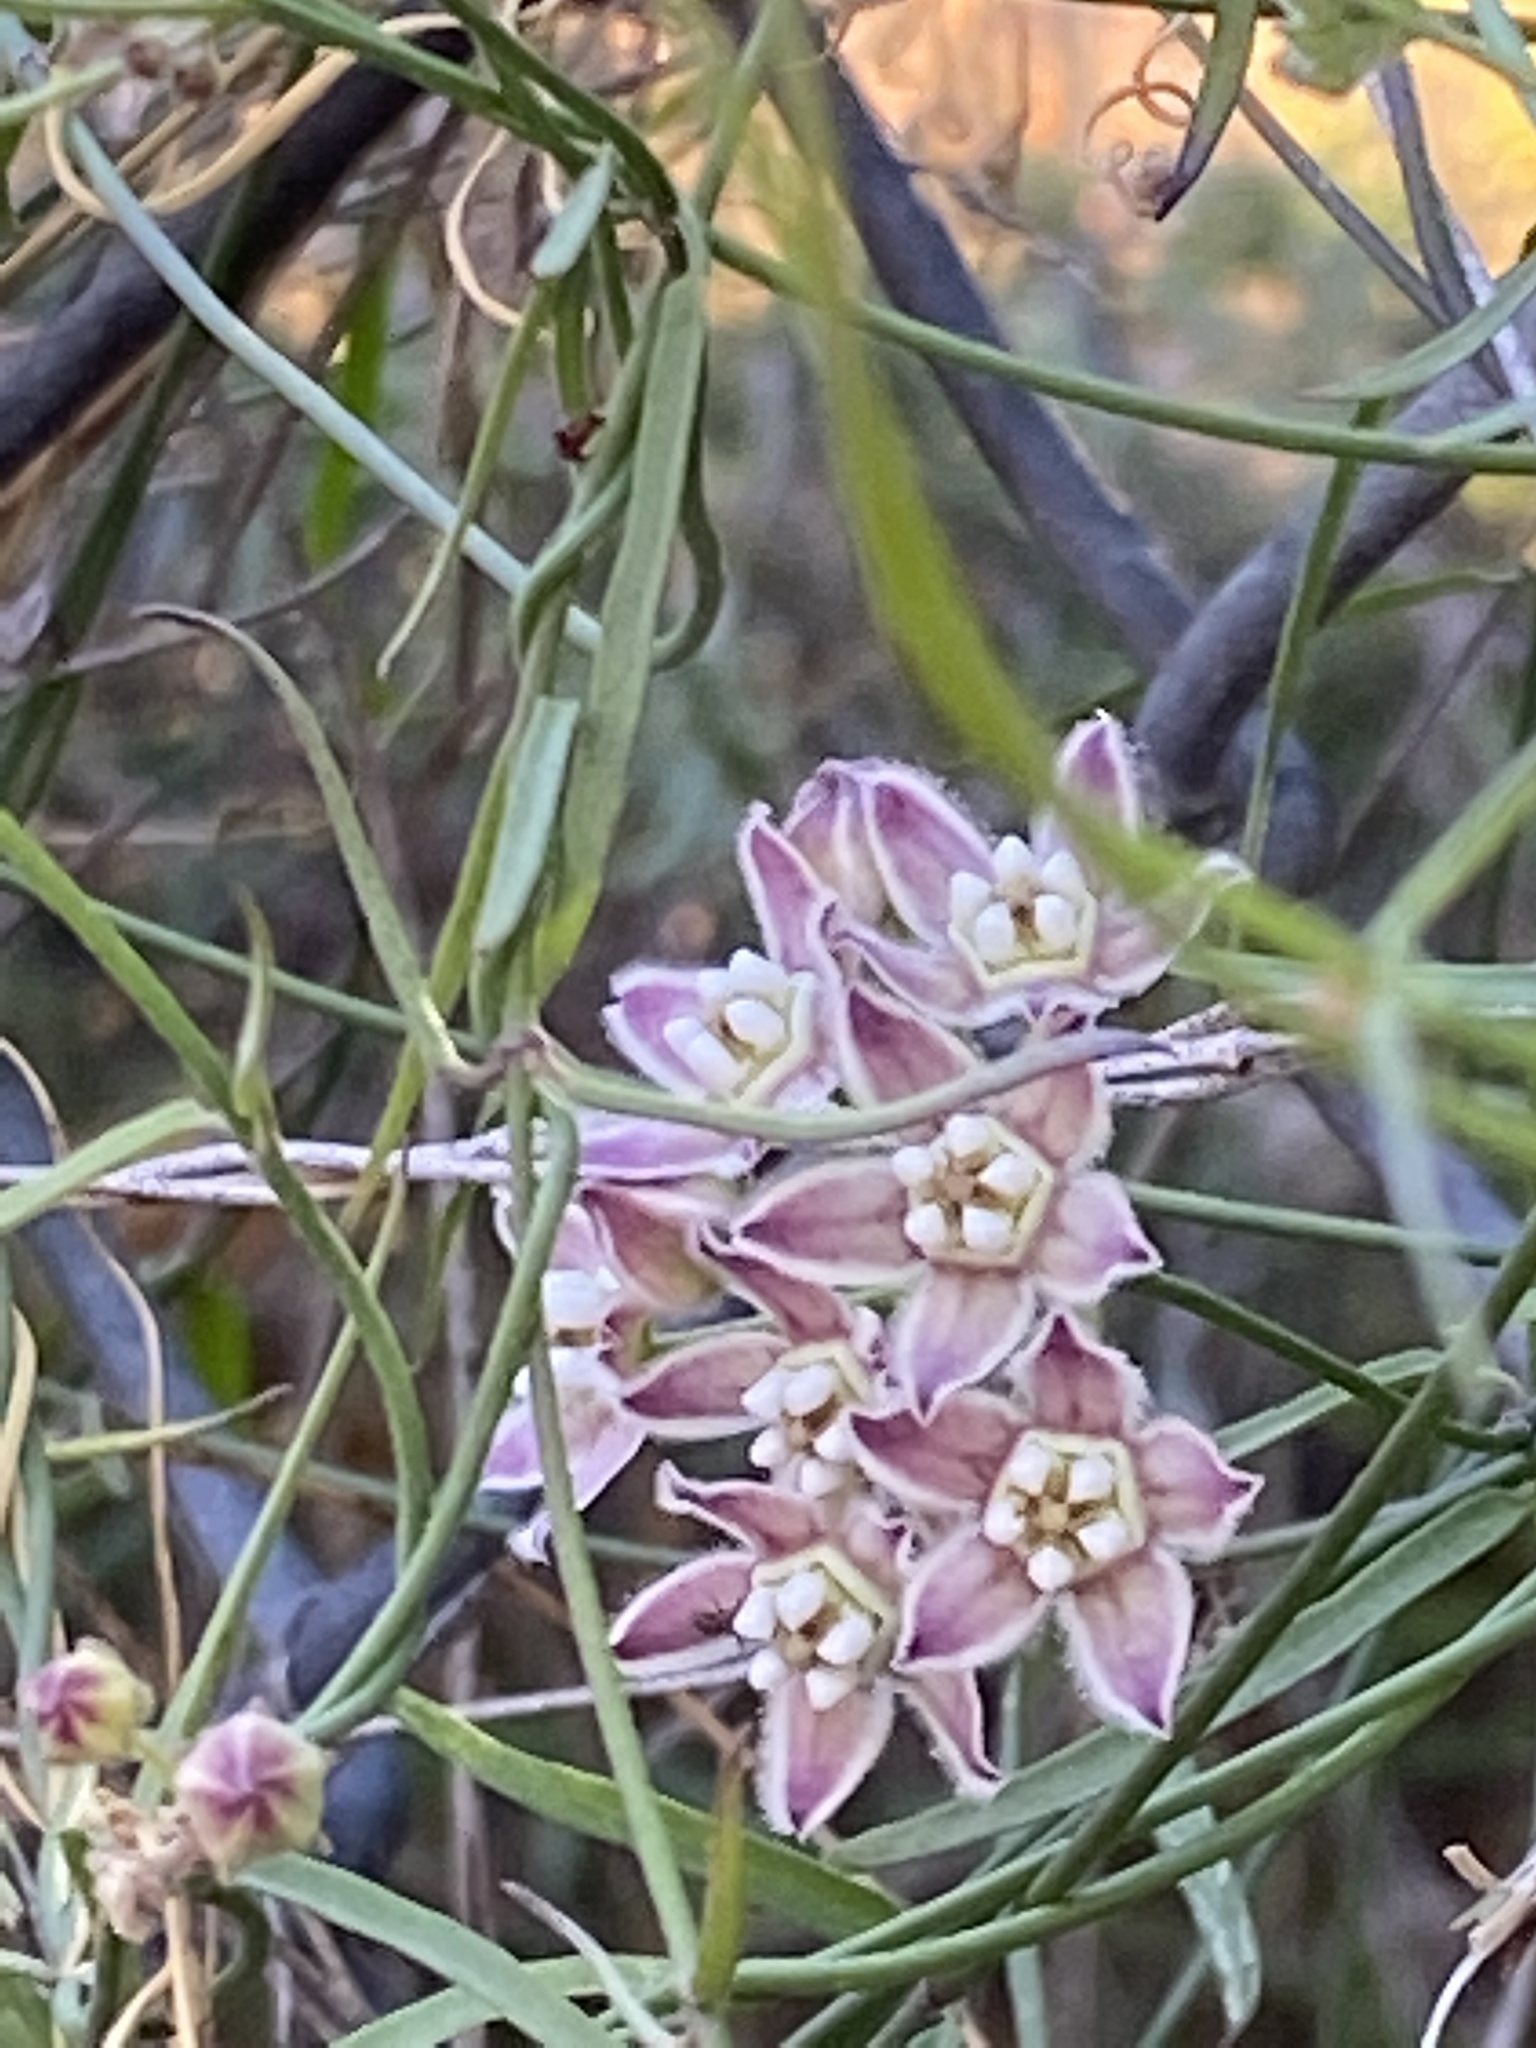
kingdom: Plantae
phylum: Tracheophyta
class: Magnoliopsida
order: Gentianales
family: Apocynaceae
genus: Funastrum
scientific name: Funastrum heterophyllum
